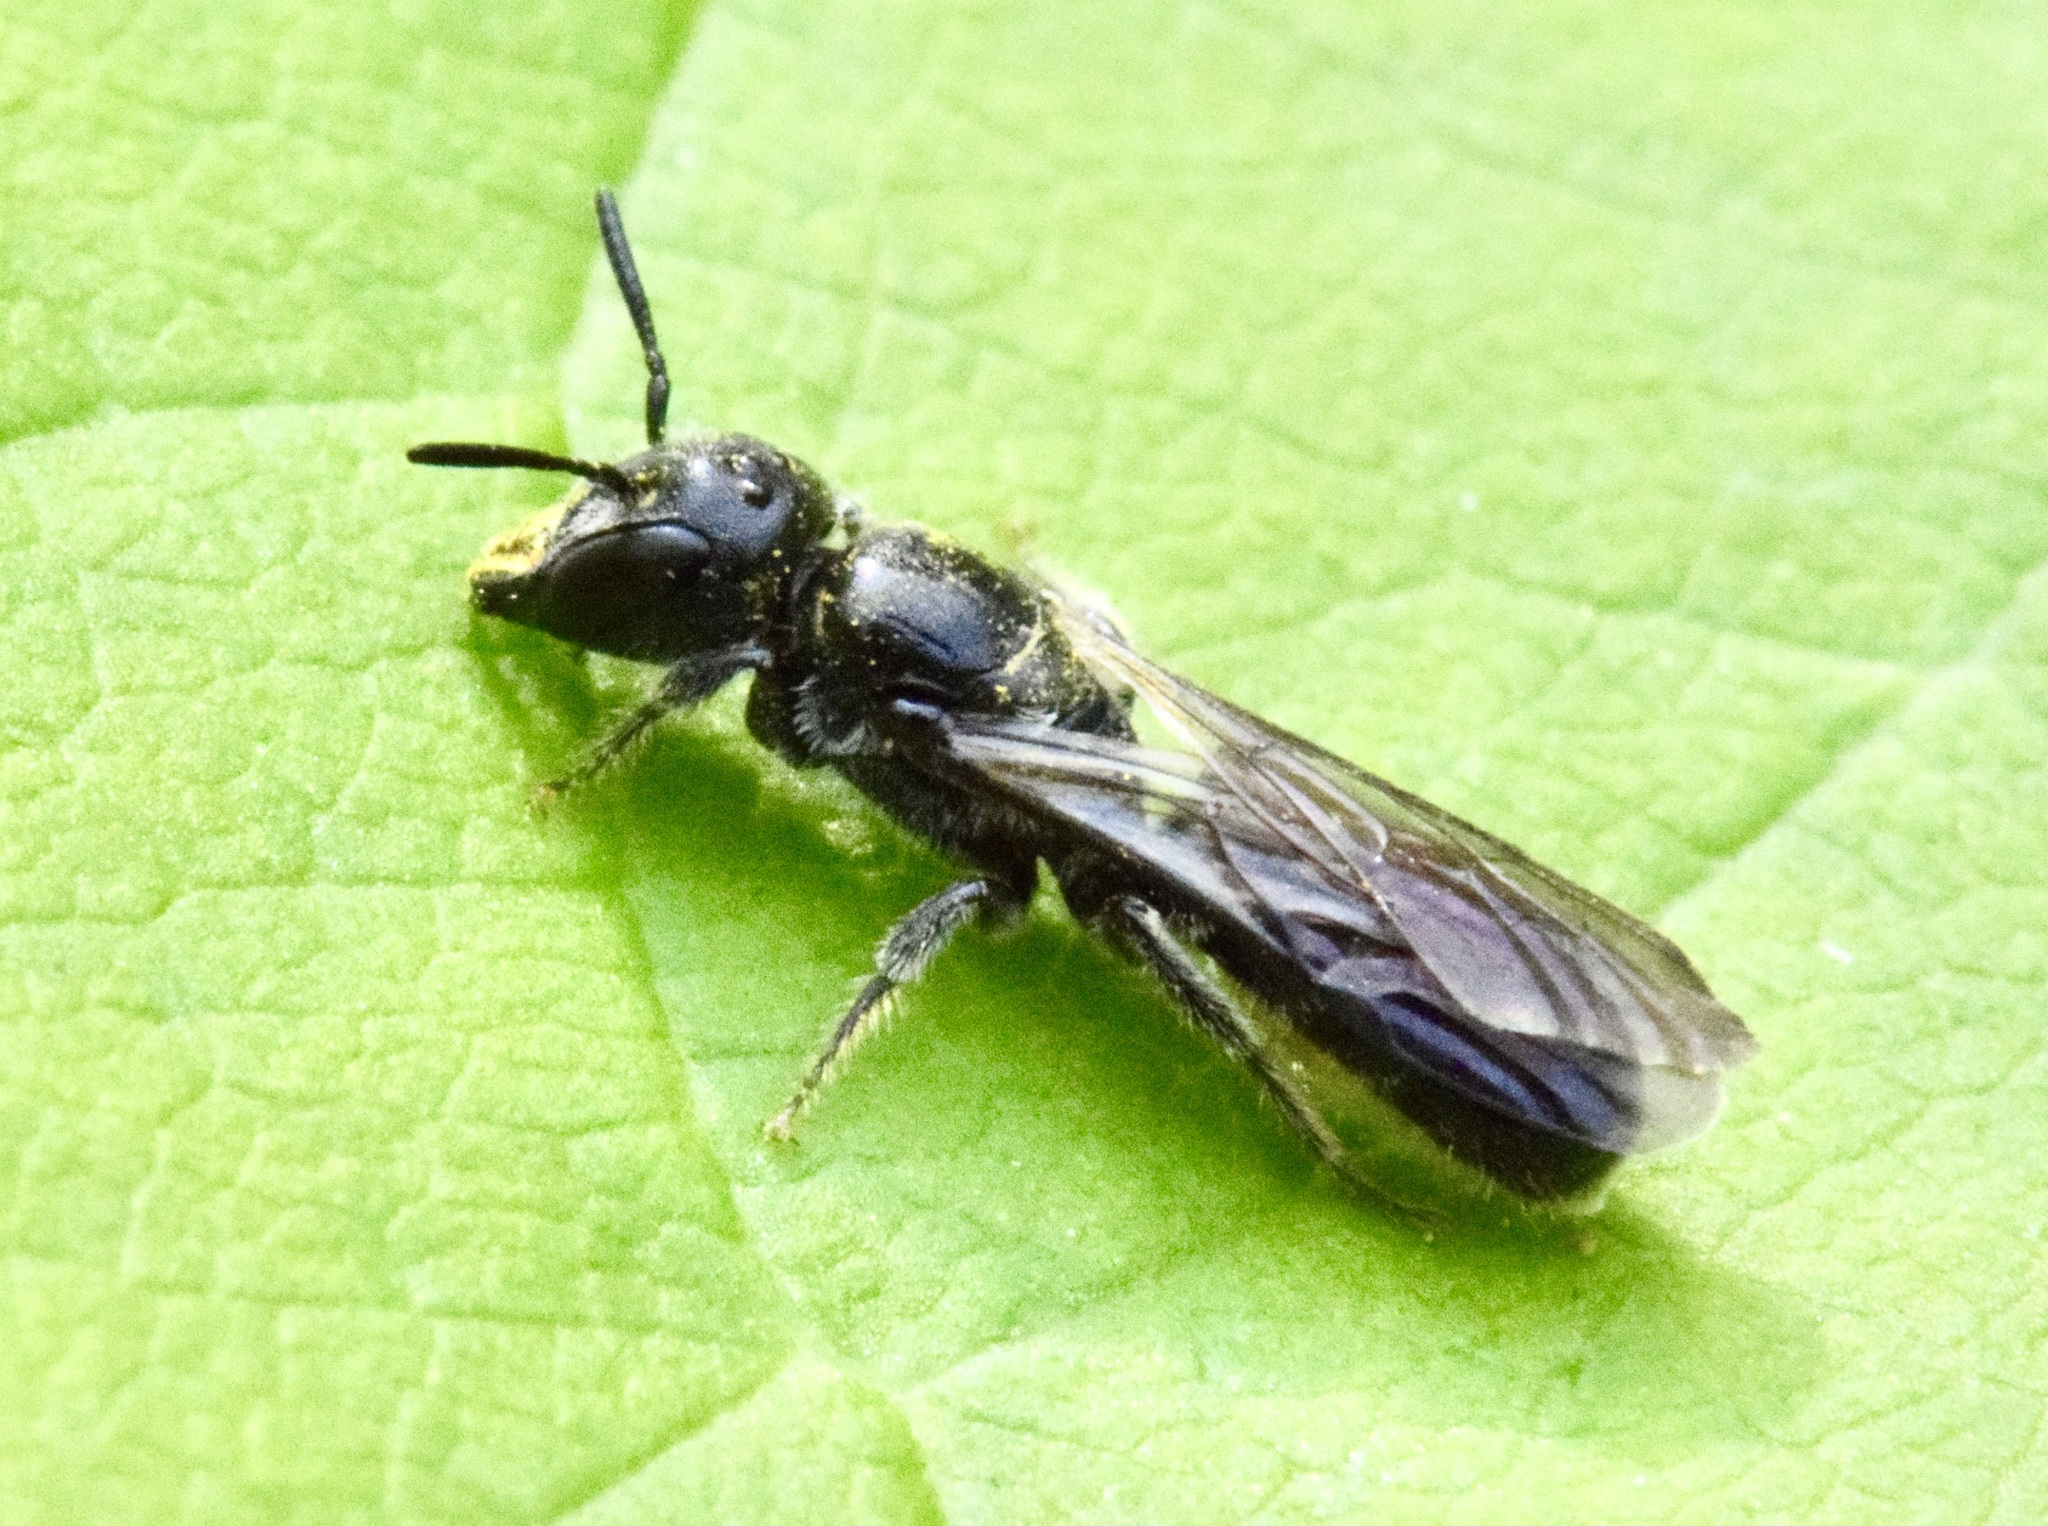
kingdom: Animalia
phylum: Arthropoda
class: Insecta
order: Hymenoptera
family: Megachilidae
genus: Chelostoma
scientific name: Chelostoma philadelphi
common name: Mock-orange scissor bee
